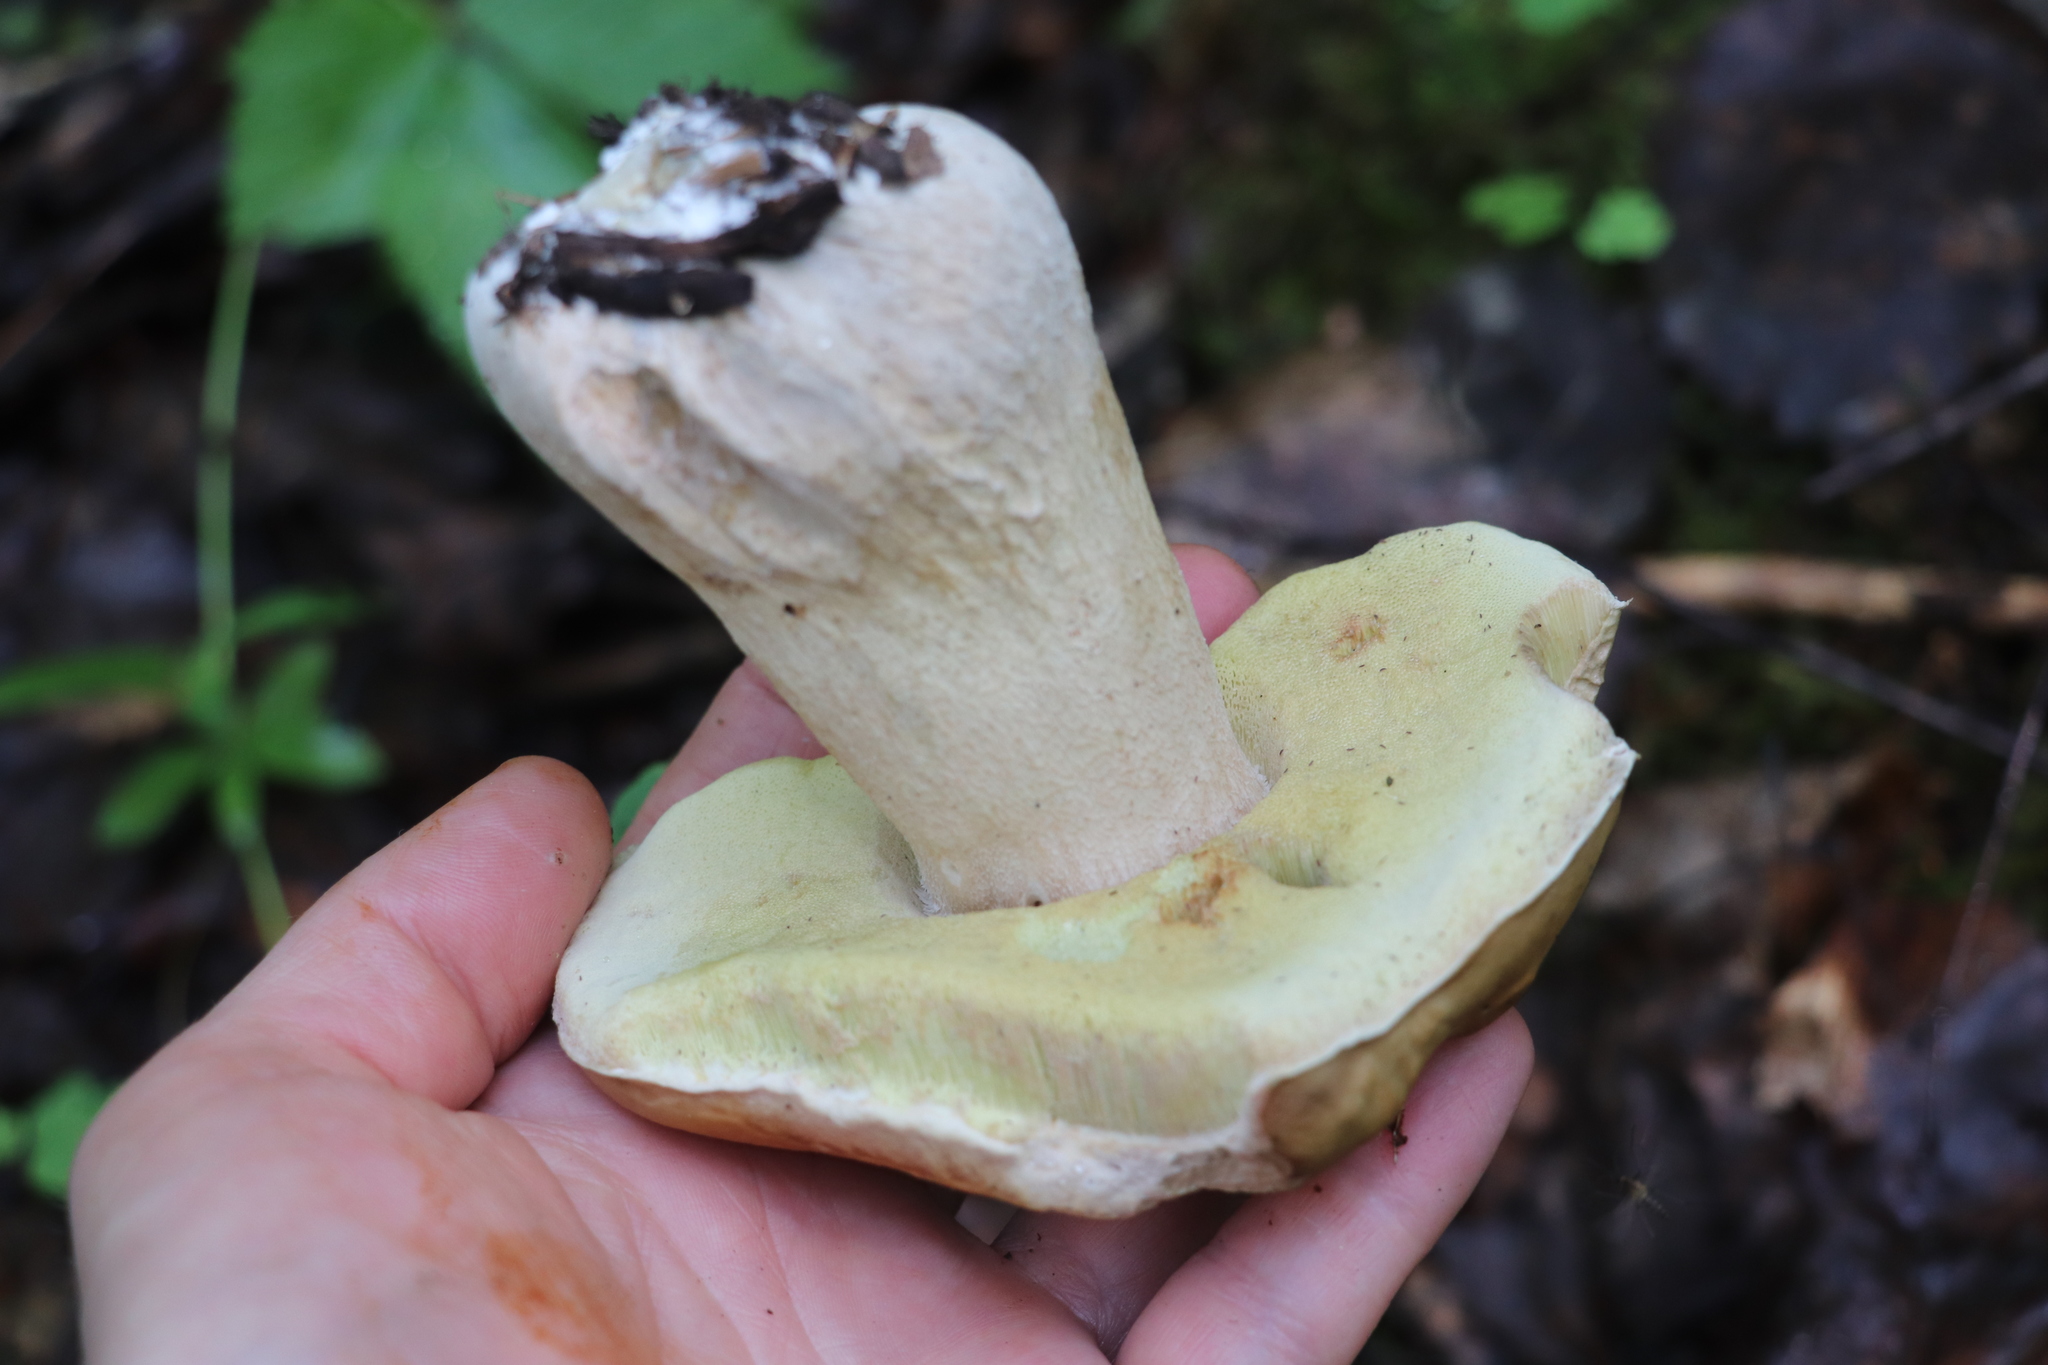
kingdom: Fungi
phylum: Basidiomycota
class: Agaricomycetes
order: Boletales
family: Boletaceae
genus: Boletus
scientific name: Boletus edulis
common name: Cep
